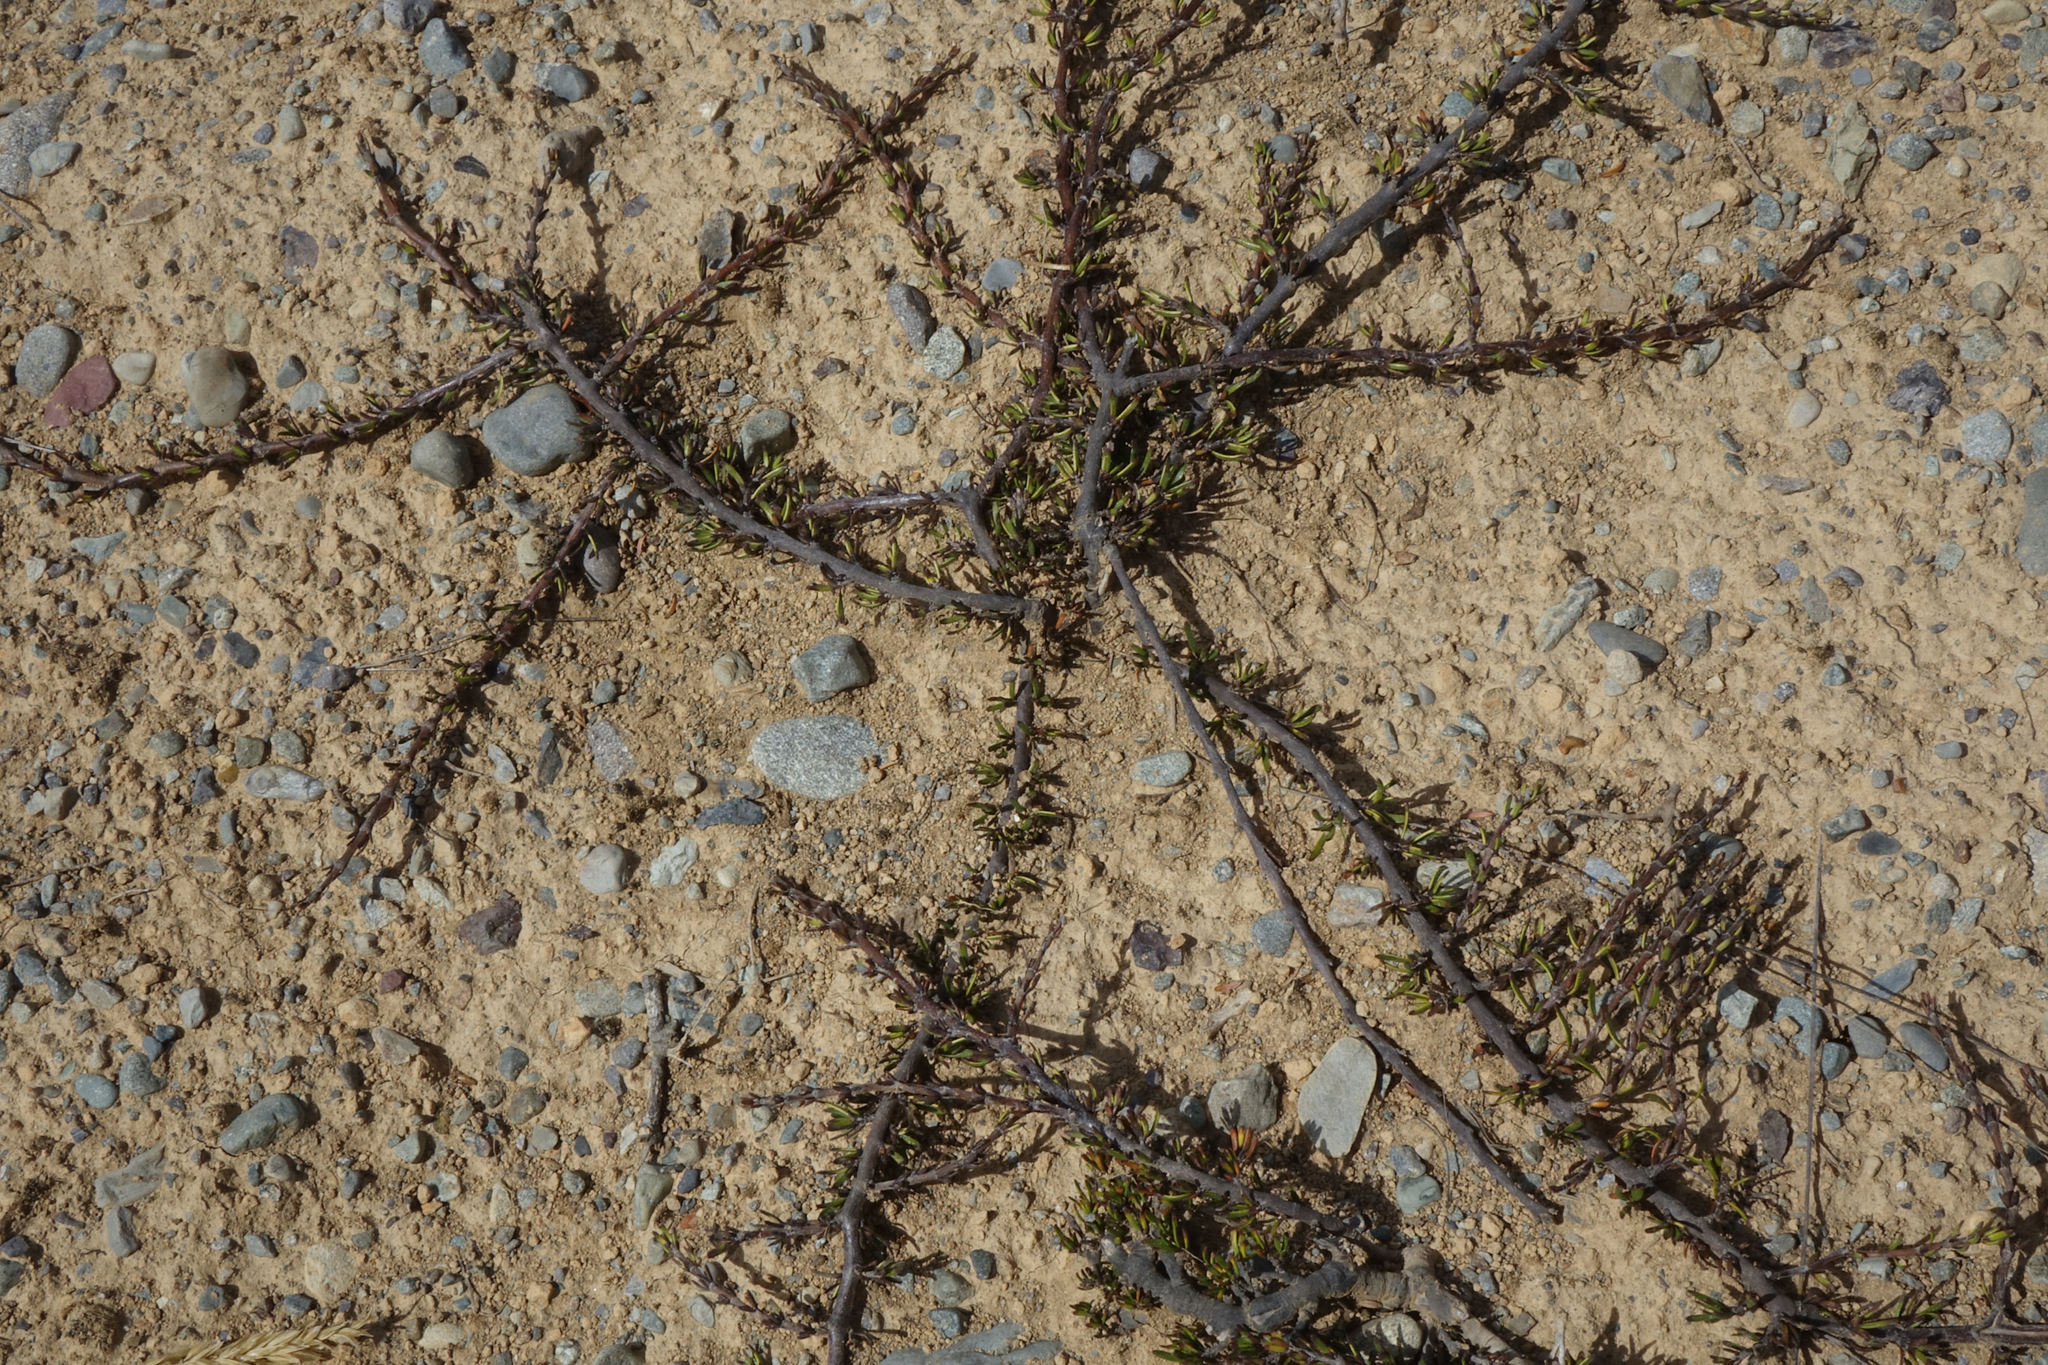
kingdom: Plantae
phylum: Tracheophyta
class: Magnoliopsida
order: Gentianales
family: Rubiaceae
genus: Coprosma
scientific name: Coprosma acerosa
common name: Sand coprosma
